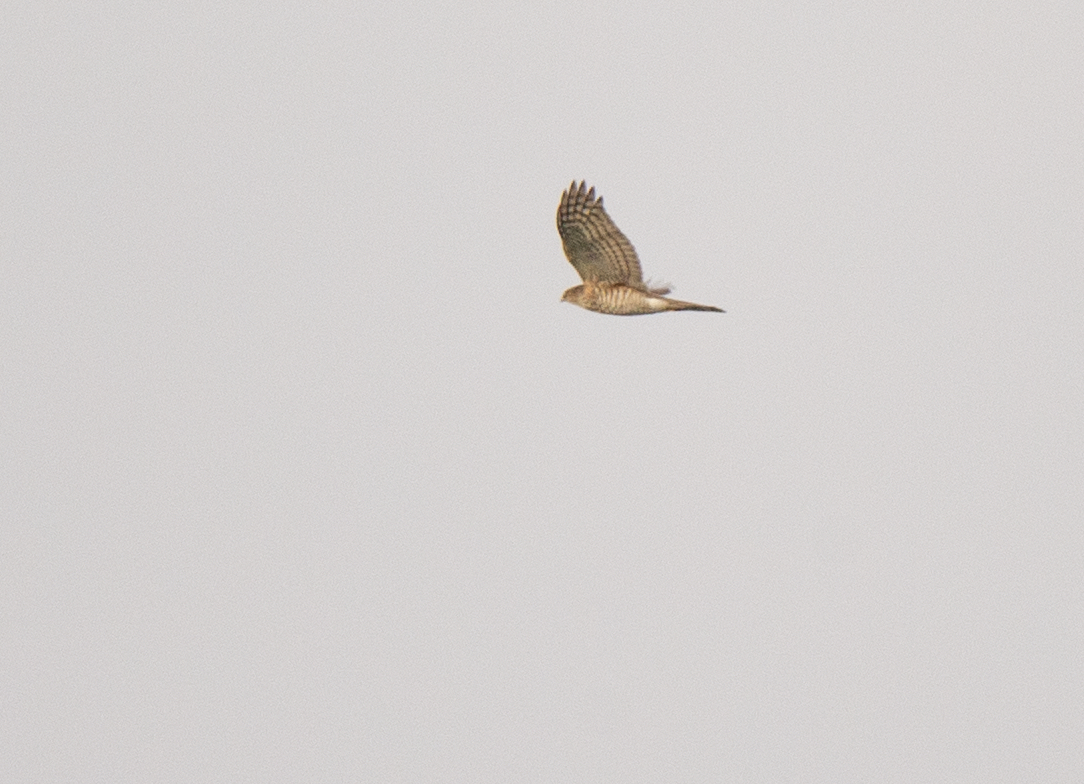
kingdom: Animalia
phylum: Chordata
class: Aves
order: Accipitriformes
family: Accipitridae
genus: Accipiter
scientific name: Accipiter nisus
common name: Eurasian sparrowhawk
